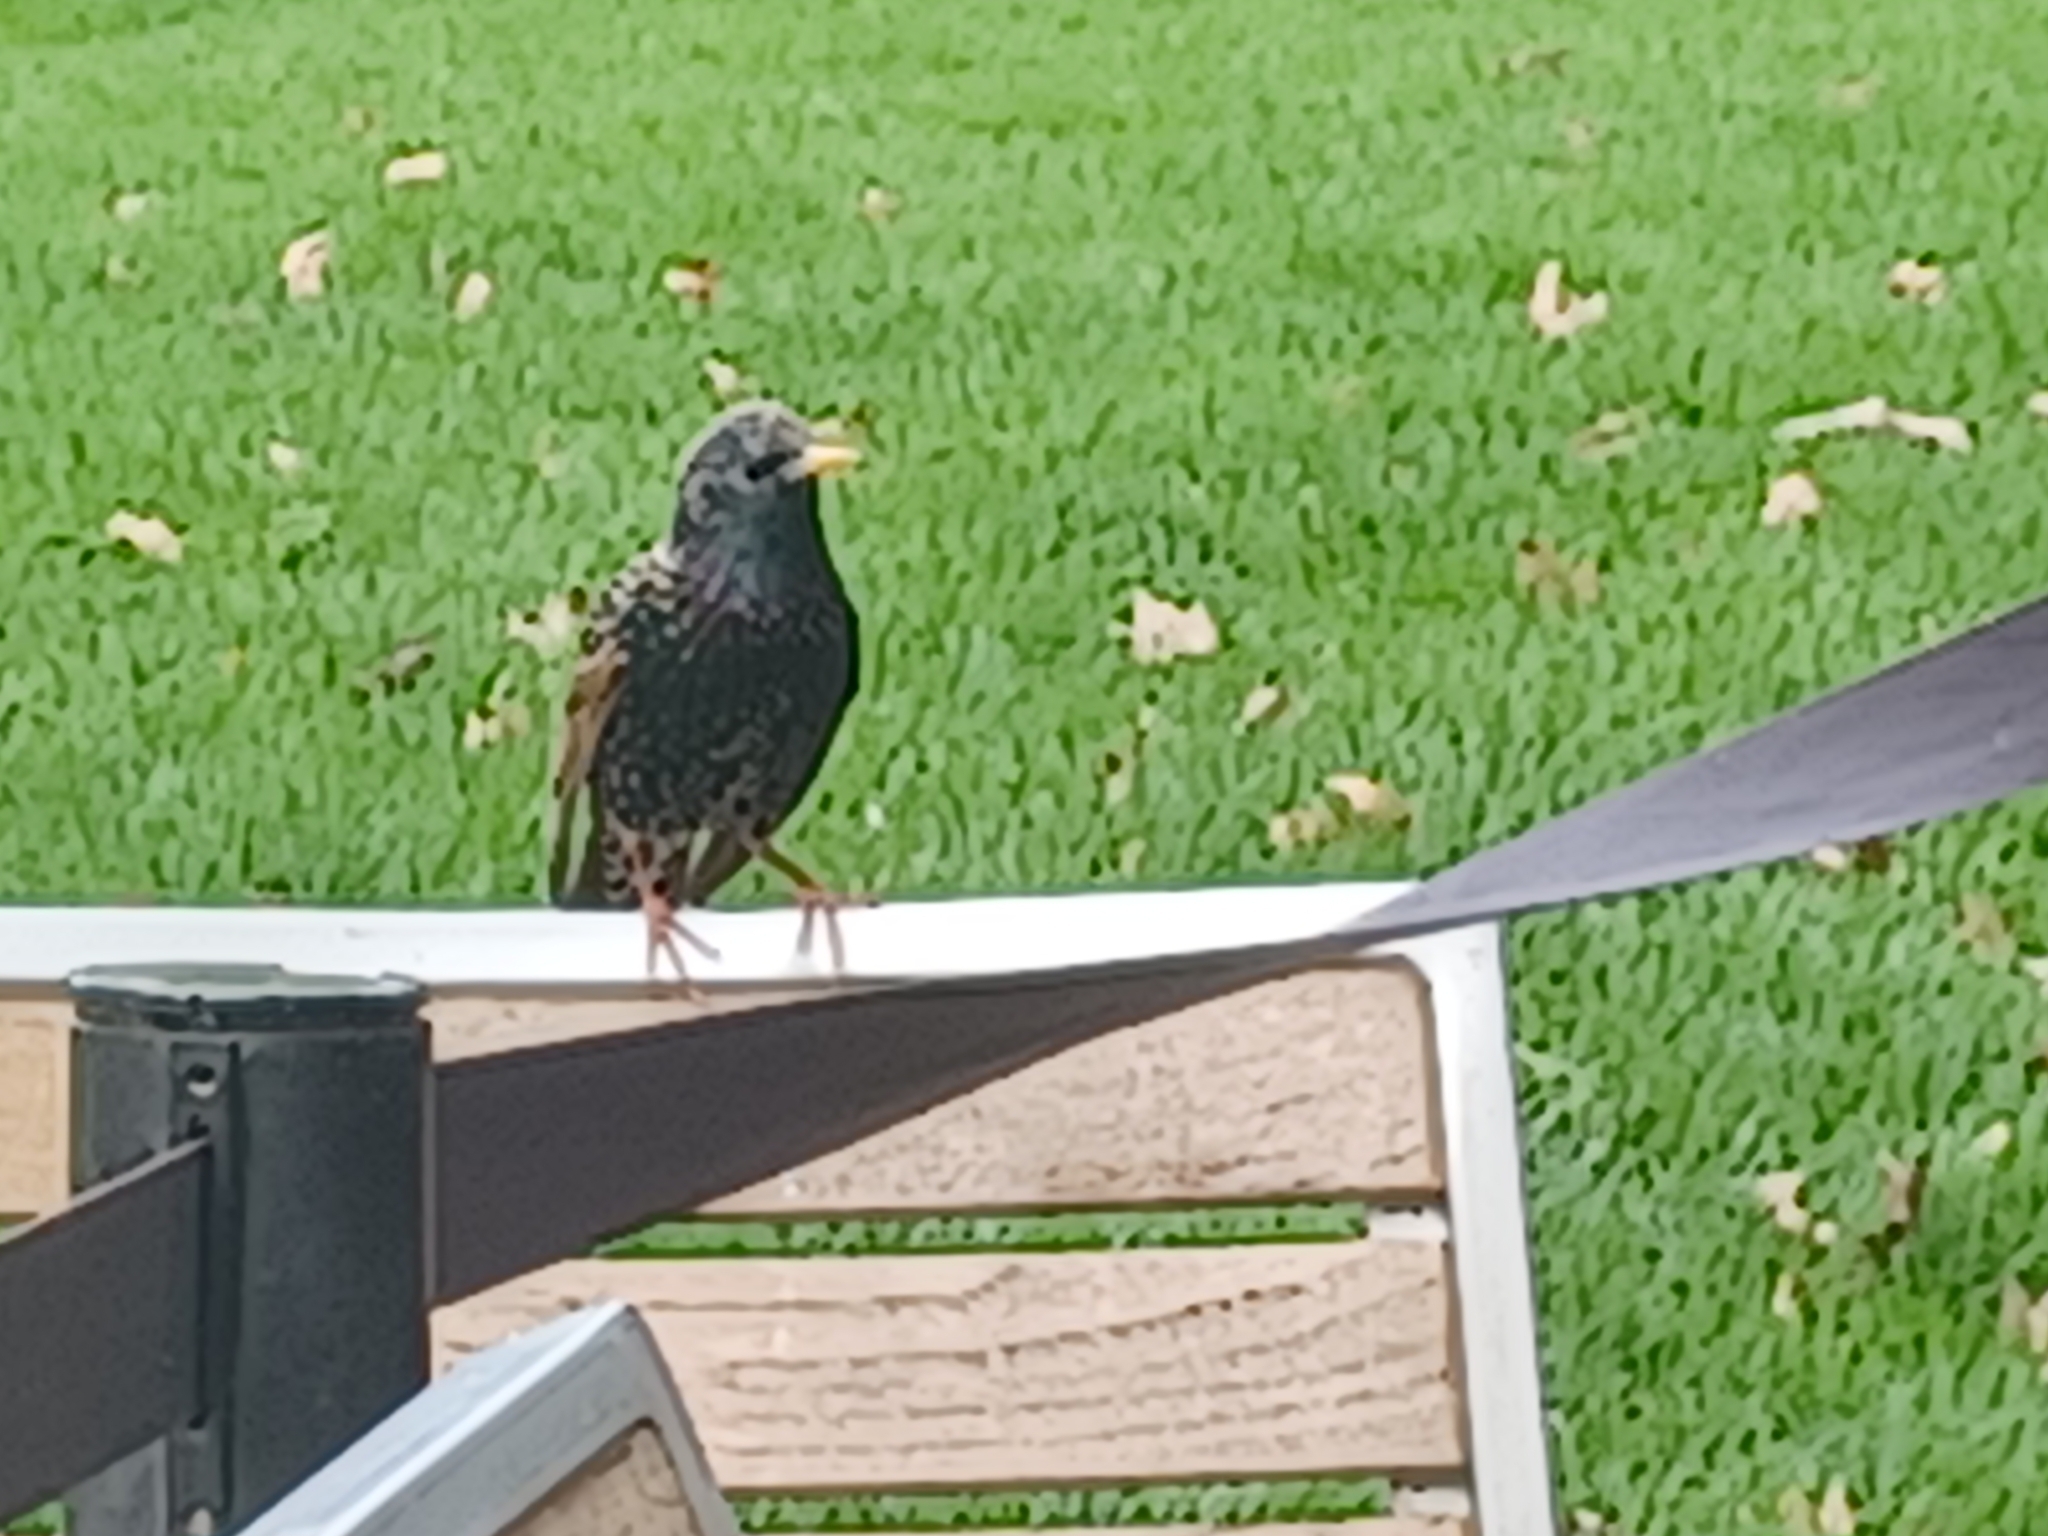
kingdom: Animalia
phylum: Chordata
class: Aves
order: Passeriformes
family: Sturnidae
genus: Sturnus
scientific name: Sturnus vulgaris
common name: Common starling
